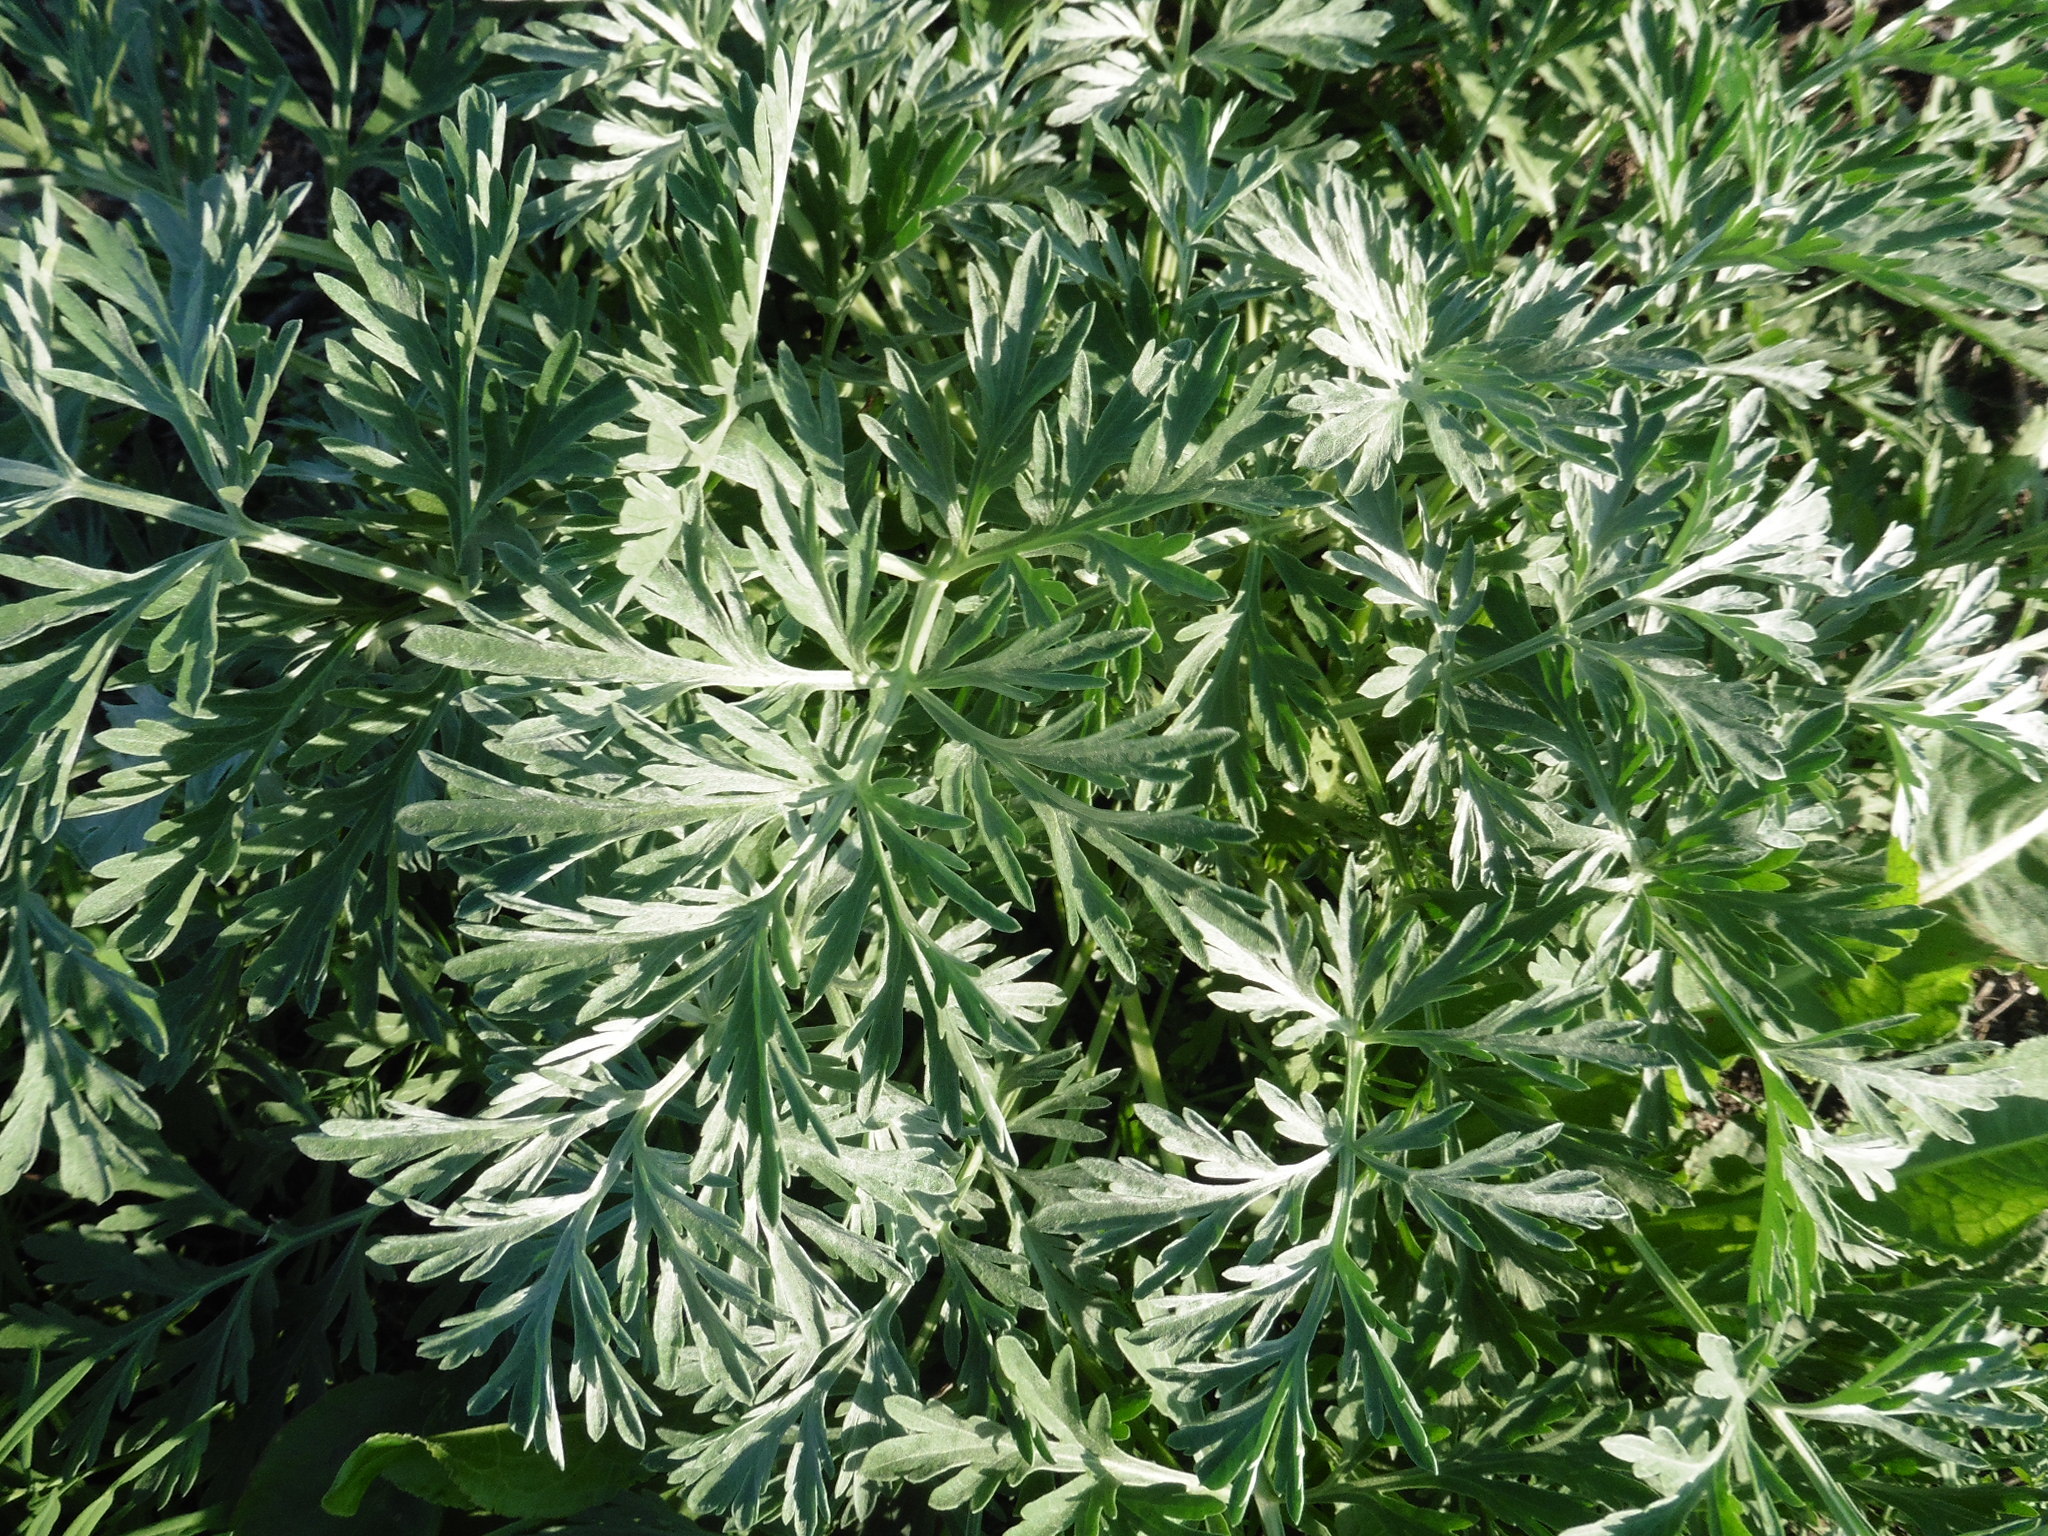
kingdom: Plantae
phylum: Tracheophyta
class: Magnoliopsida
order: Asterales
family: Asteraceae
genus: Artemisia
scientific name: Artemisia absinthium
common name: Wormwood
